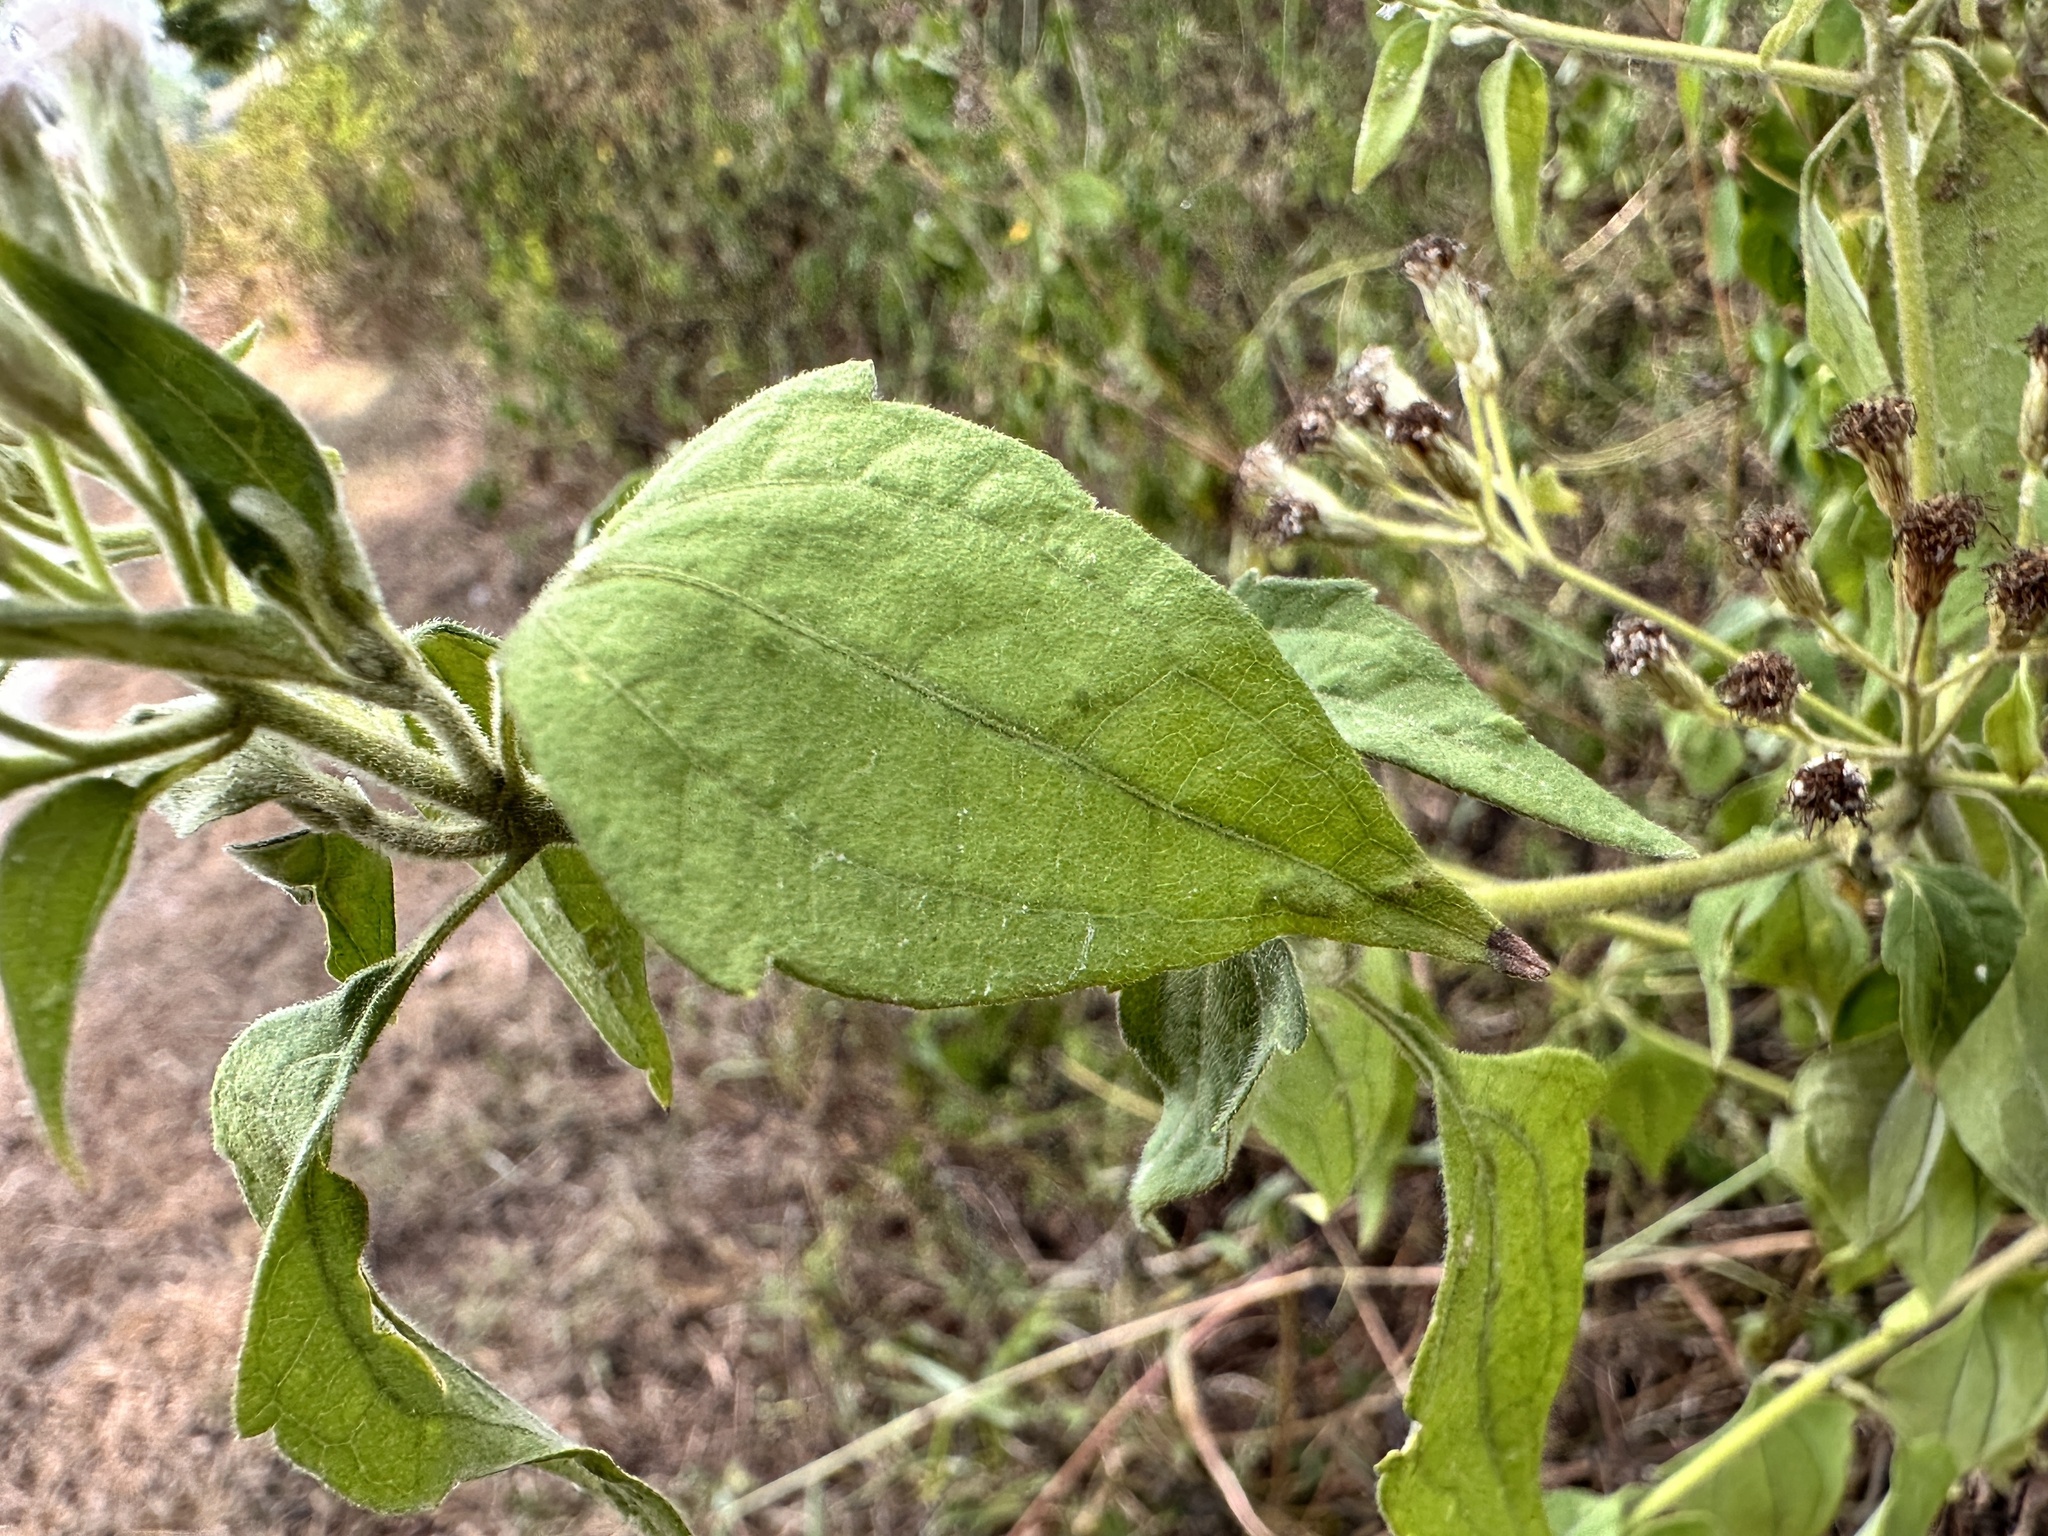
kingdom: Plantae
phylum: Tracheophyta
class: Magnoliopsida
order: Asterales
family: Asteraceae
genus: Chromolaena
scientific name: Chromolaena odorata
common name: Siamweed
